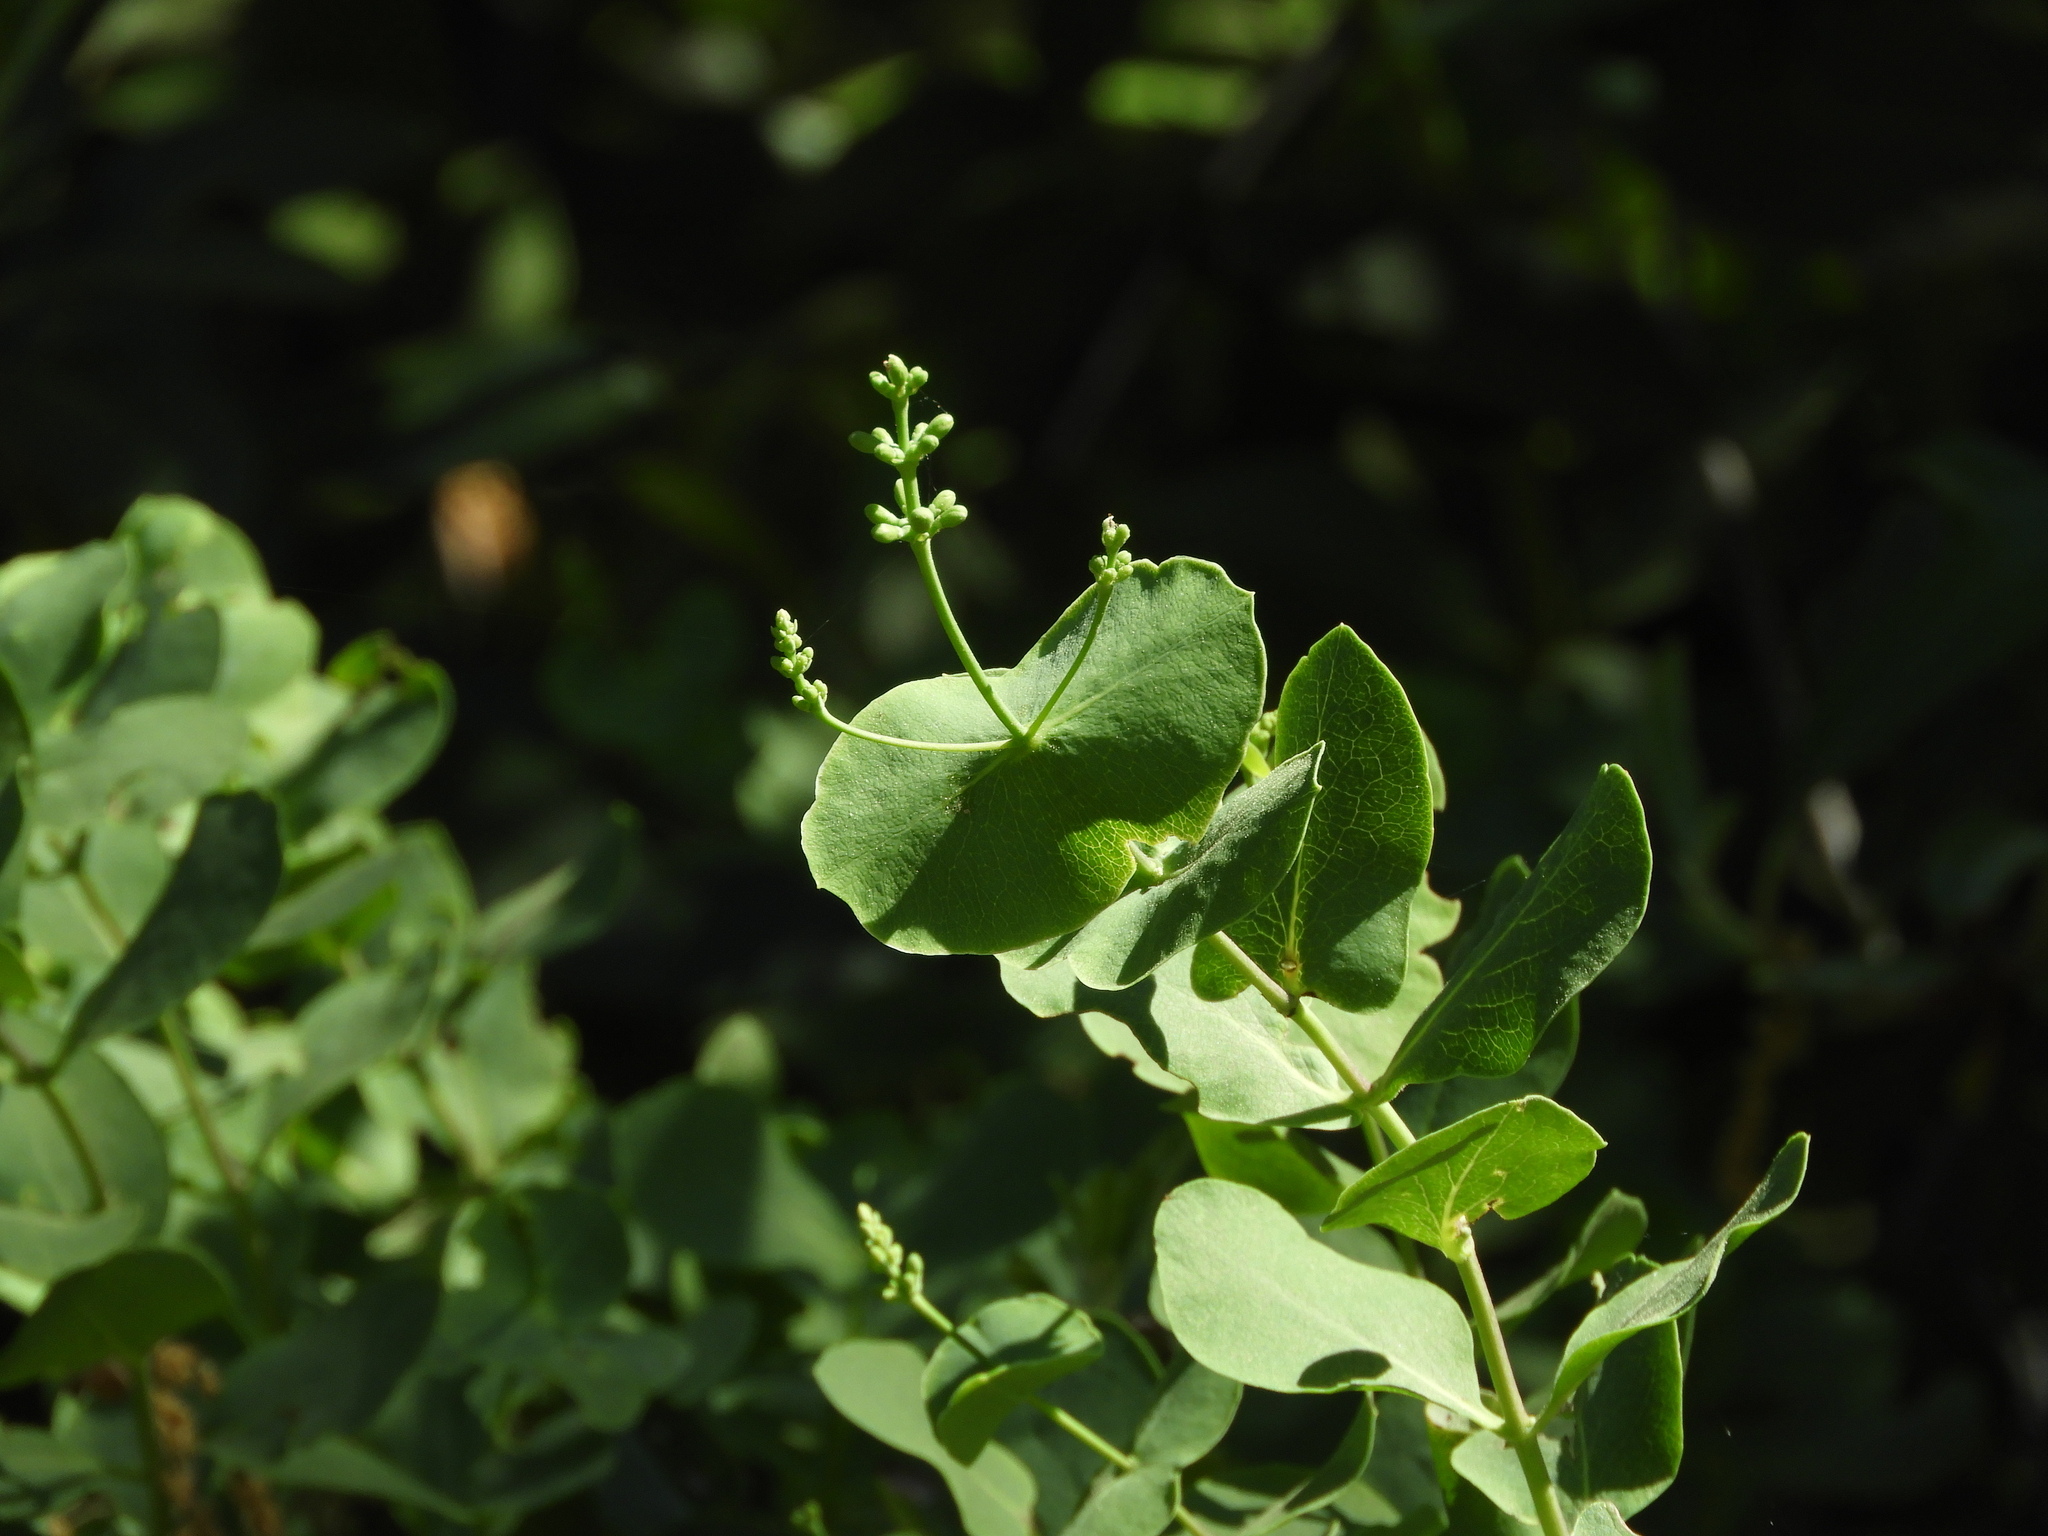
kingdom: Plantae
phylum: Tracheophyta
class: Magnoliopsida
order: Dipsacales
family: Caprifoliaceae
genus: Lonicera
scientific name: Lonicera interrupta
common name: Chaparral honeysuckle
